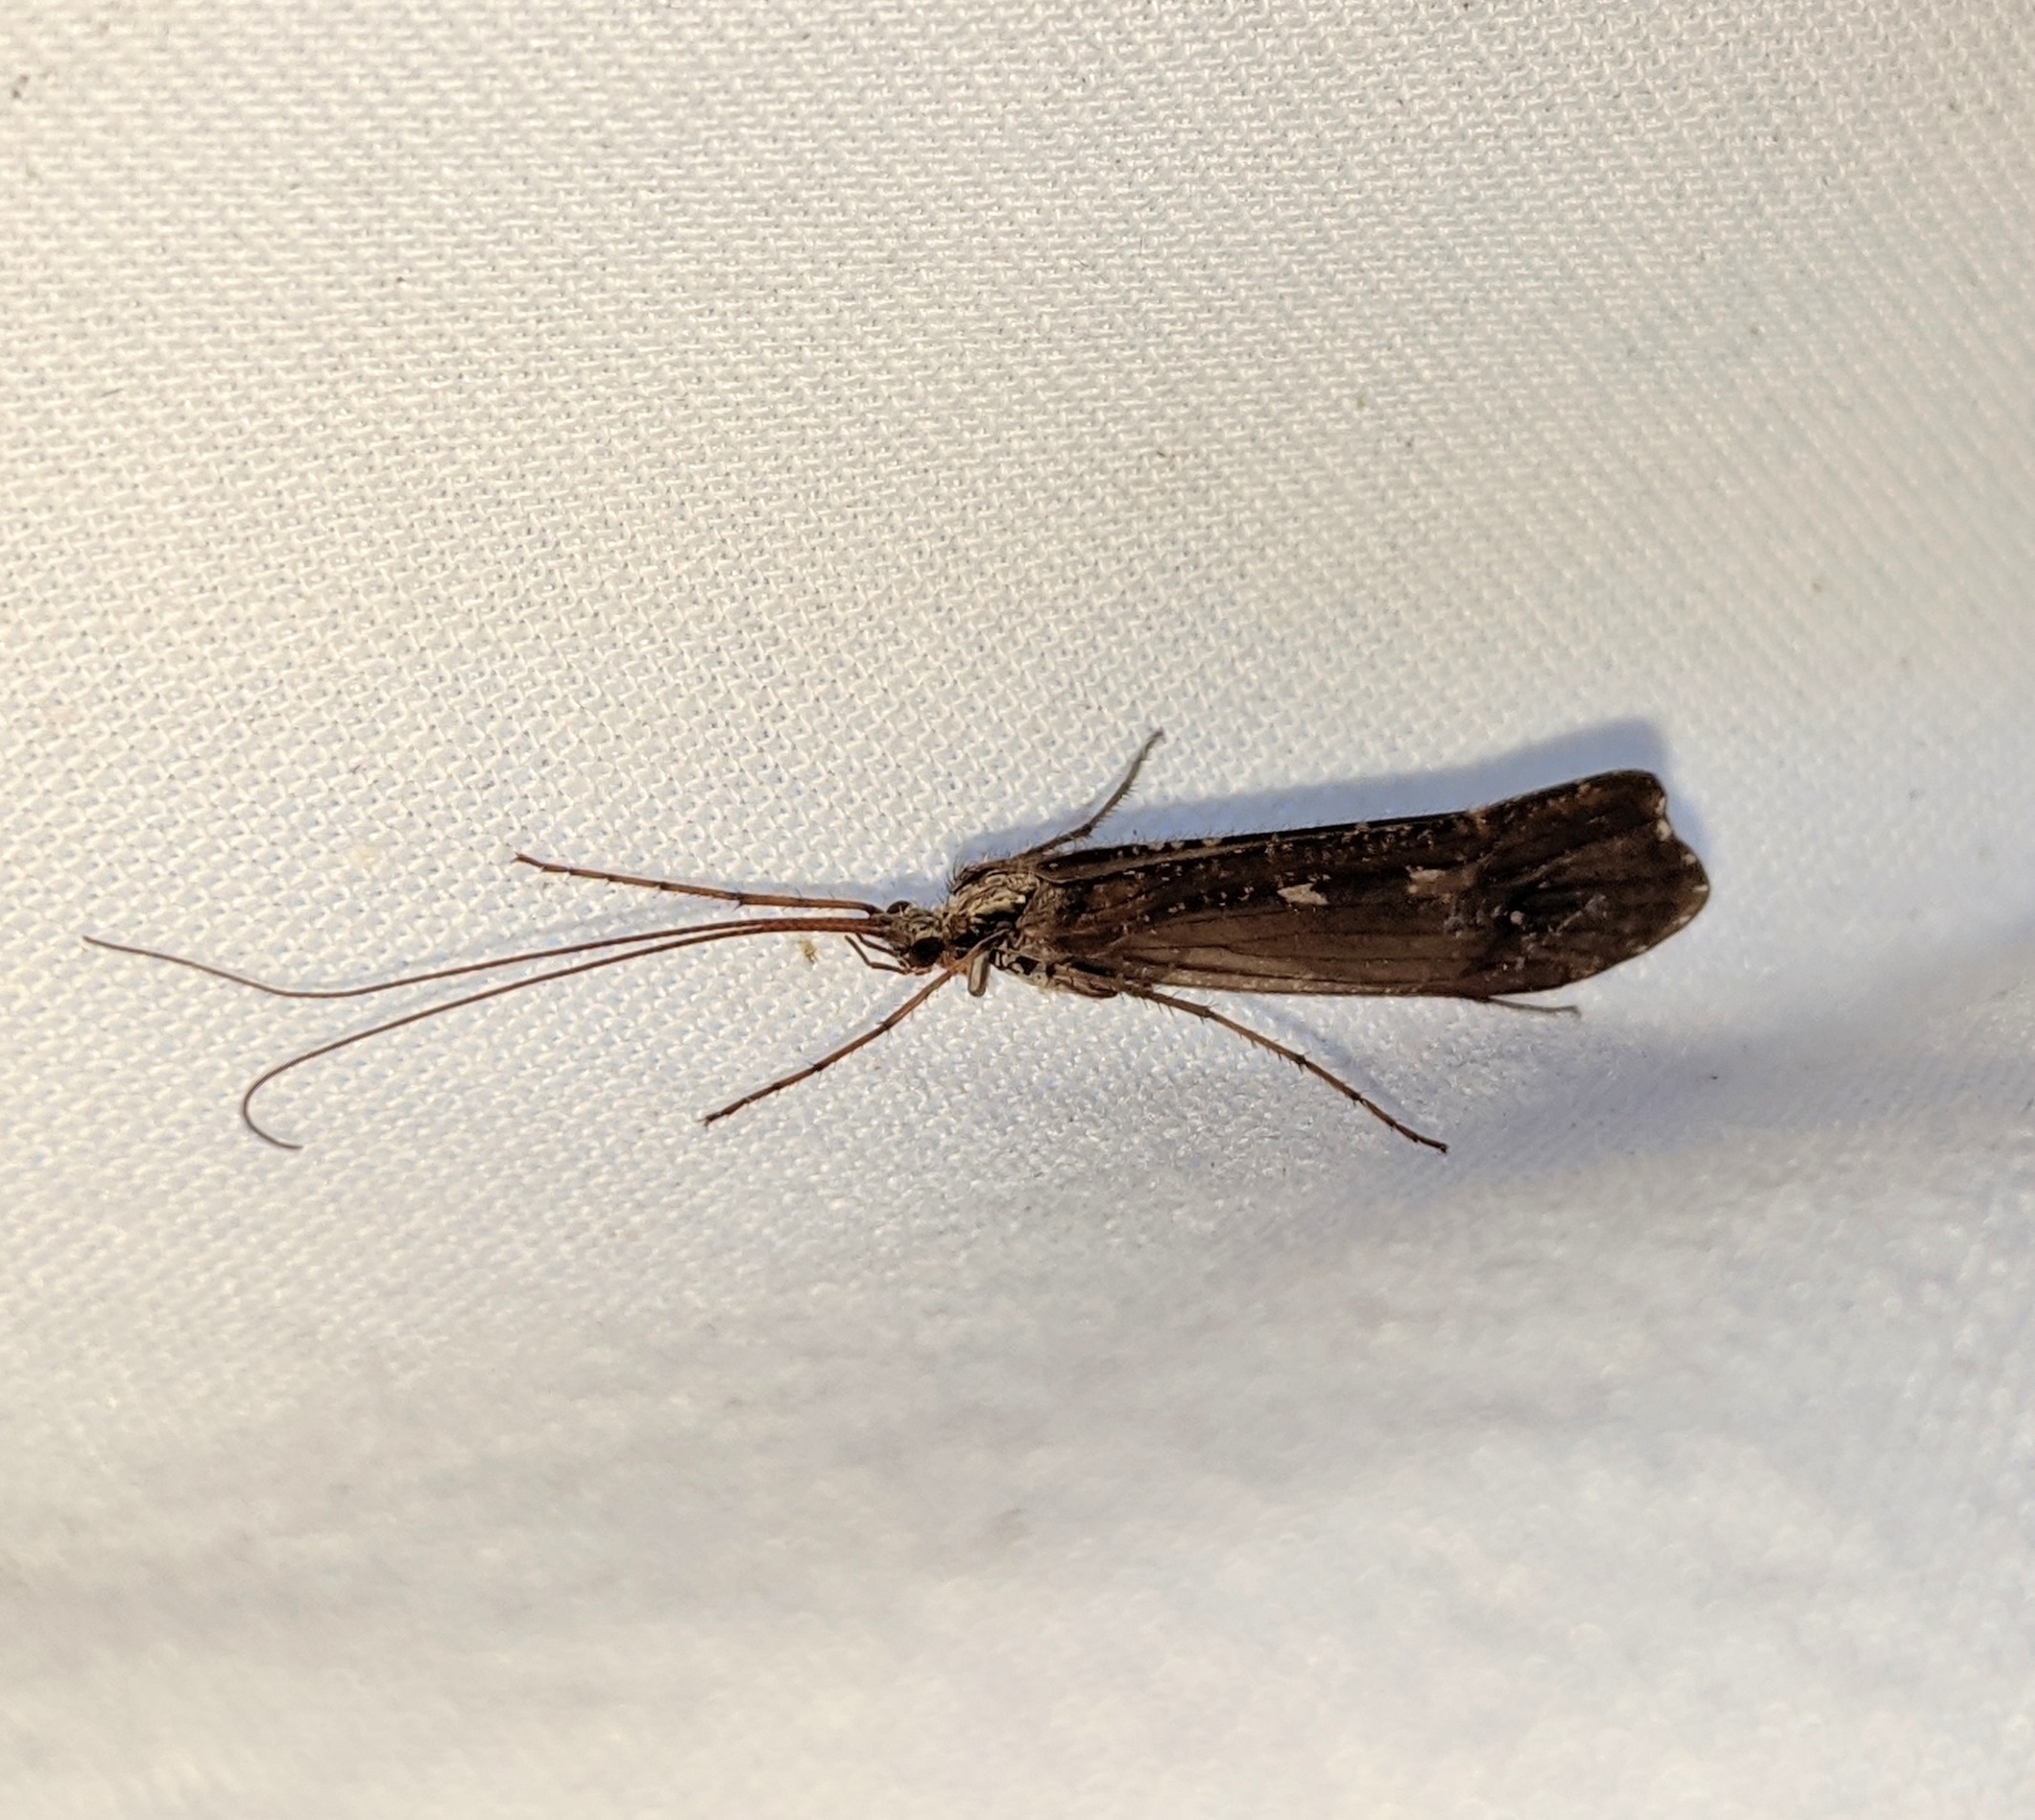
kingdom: Animalia
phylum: Arthropoda
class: Insecta
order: Trichoptera
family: Limnephilidae
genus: Glyphopsyche
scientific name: Glyphopsyche irrorata
